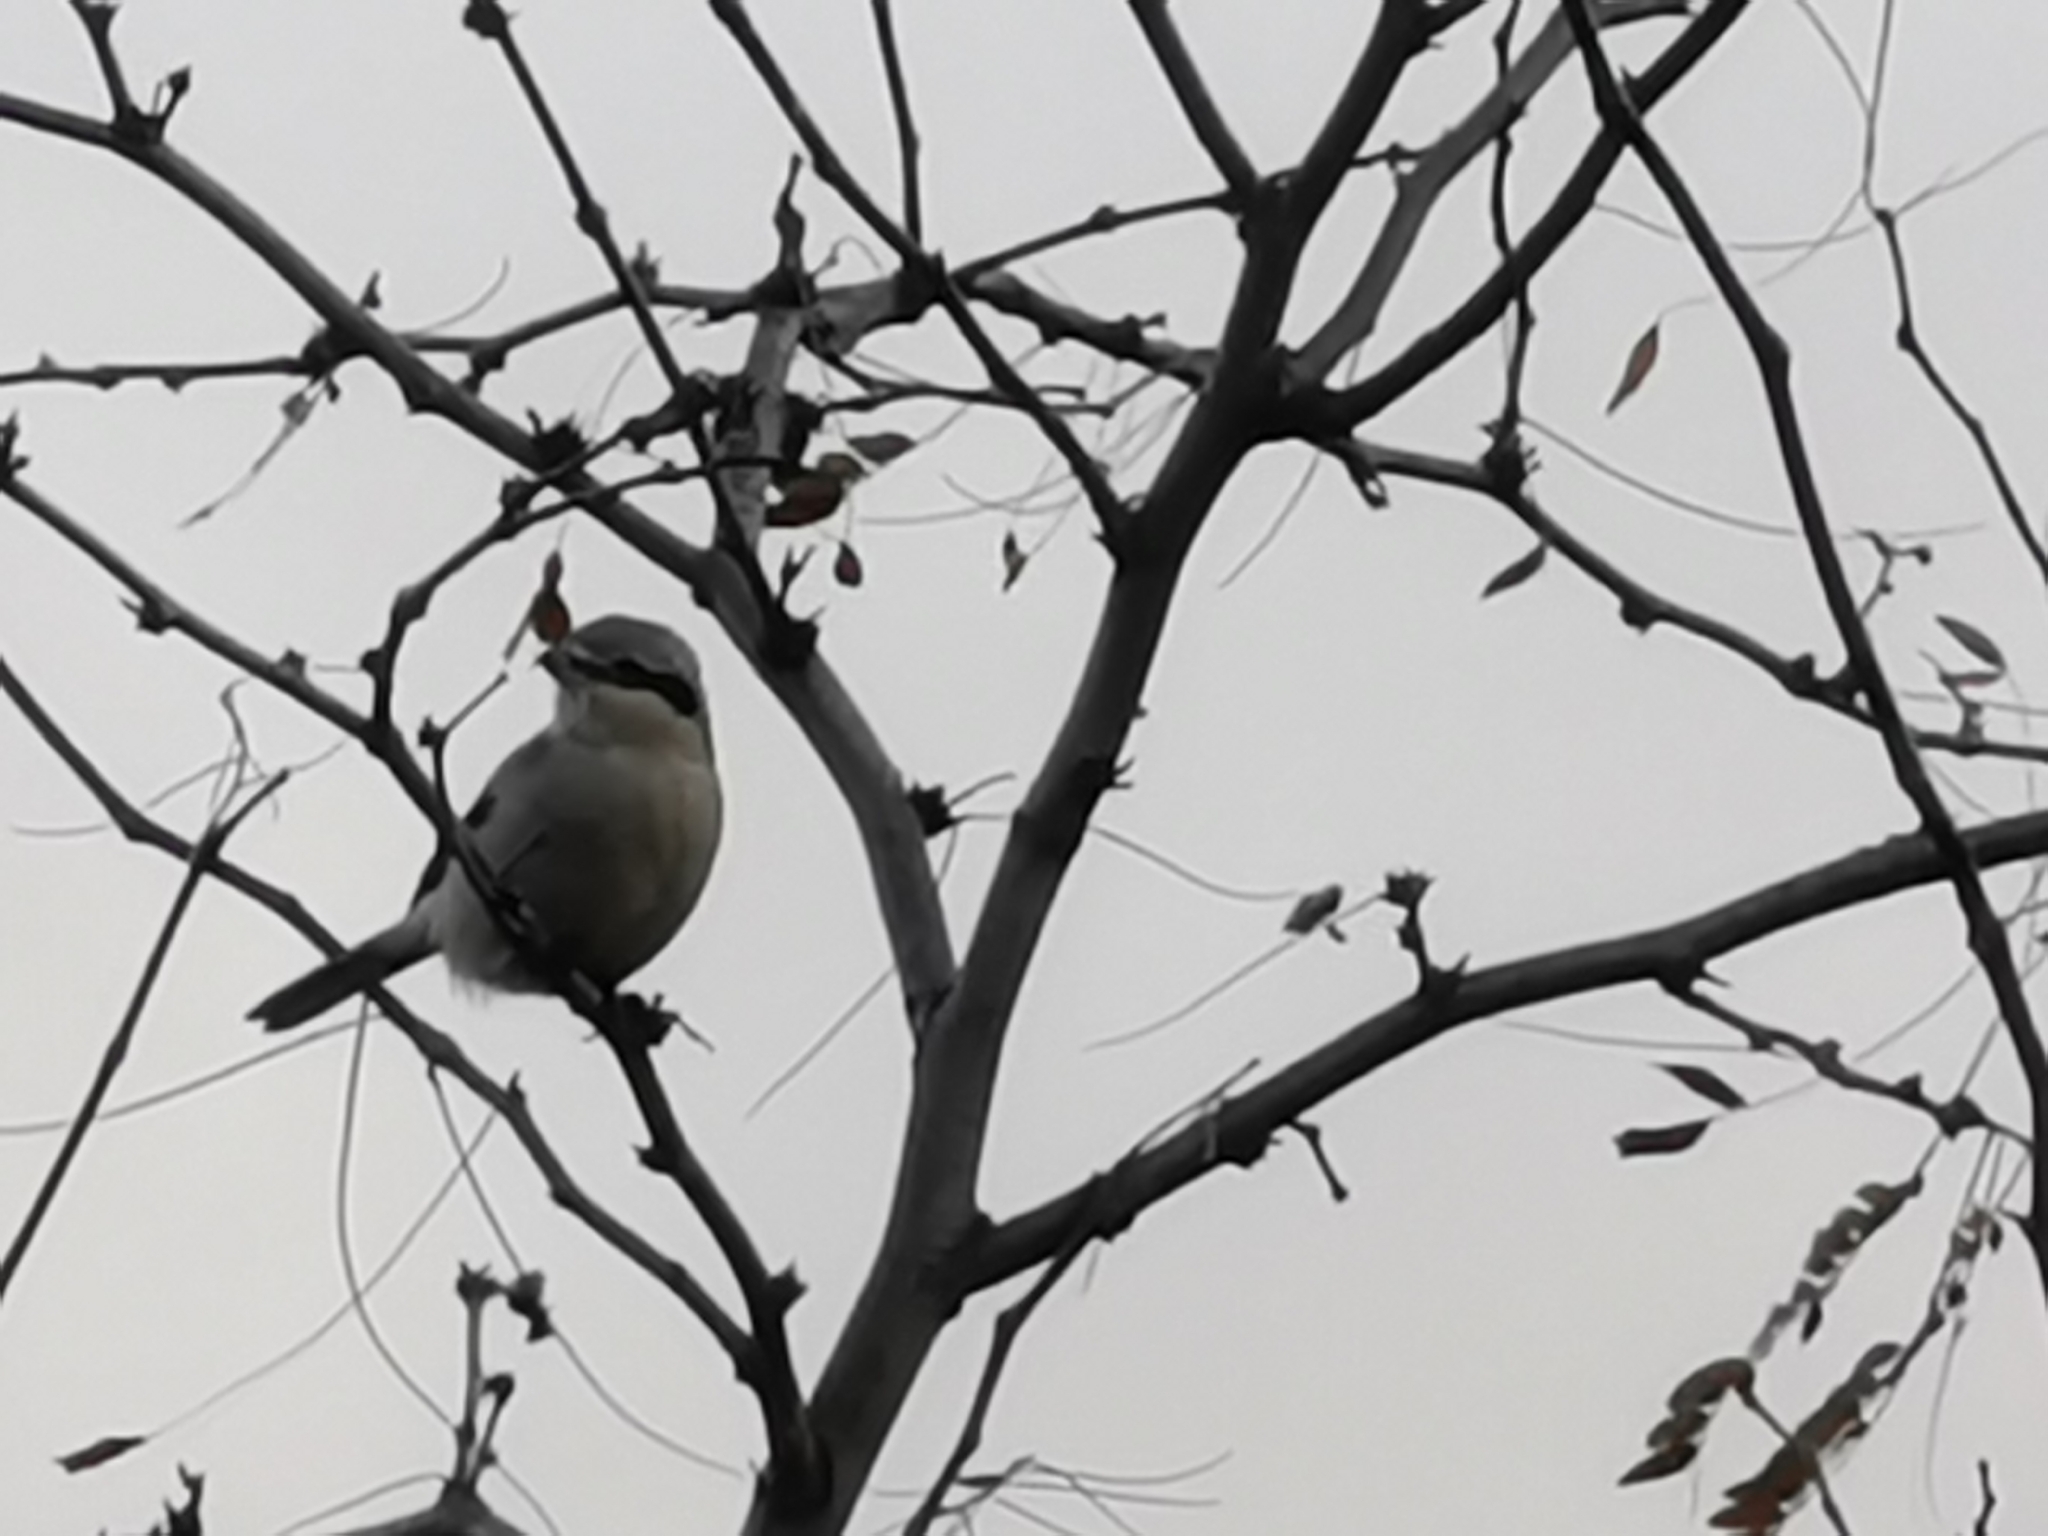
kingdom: Animalia
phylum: Chordata
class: Aves
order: Passeriformes
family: Laniidae
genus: Lanius
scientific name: Lanius borealis
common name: Northern shrike
